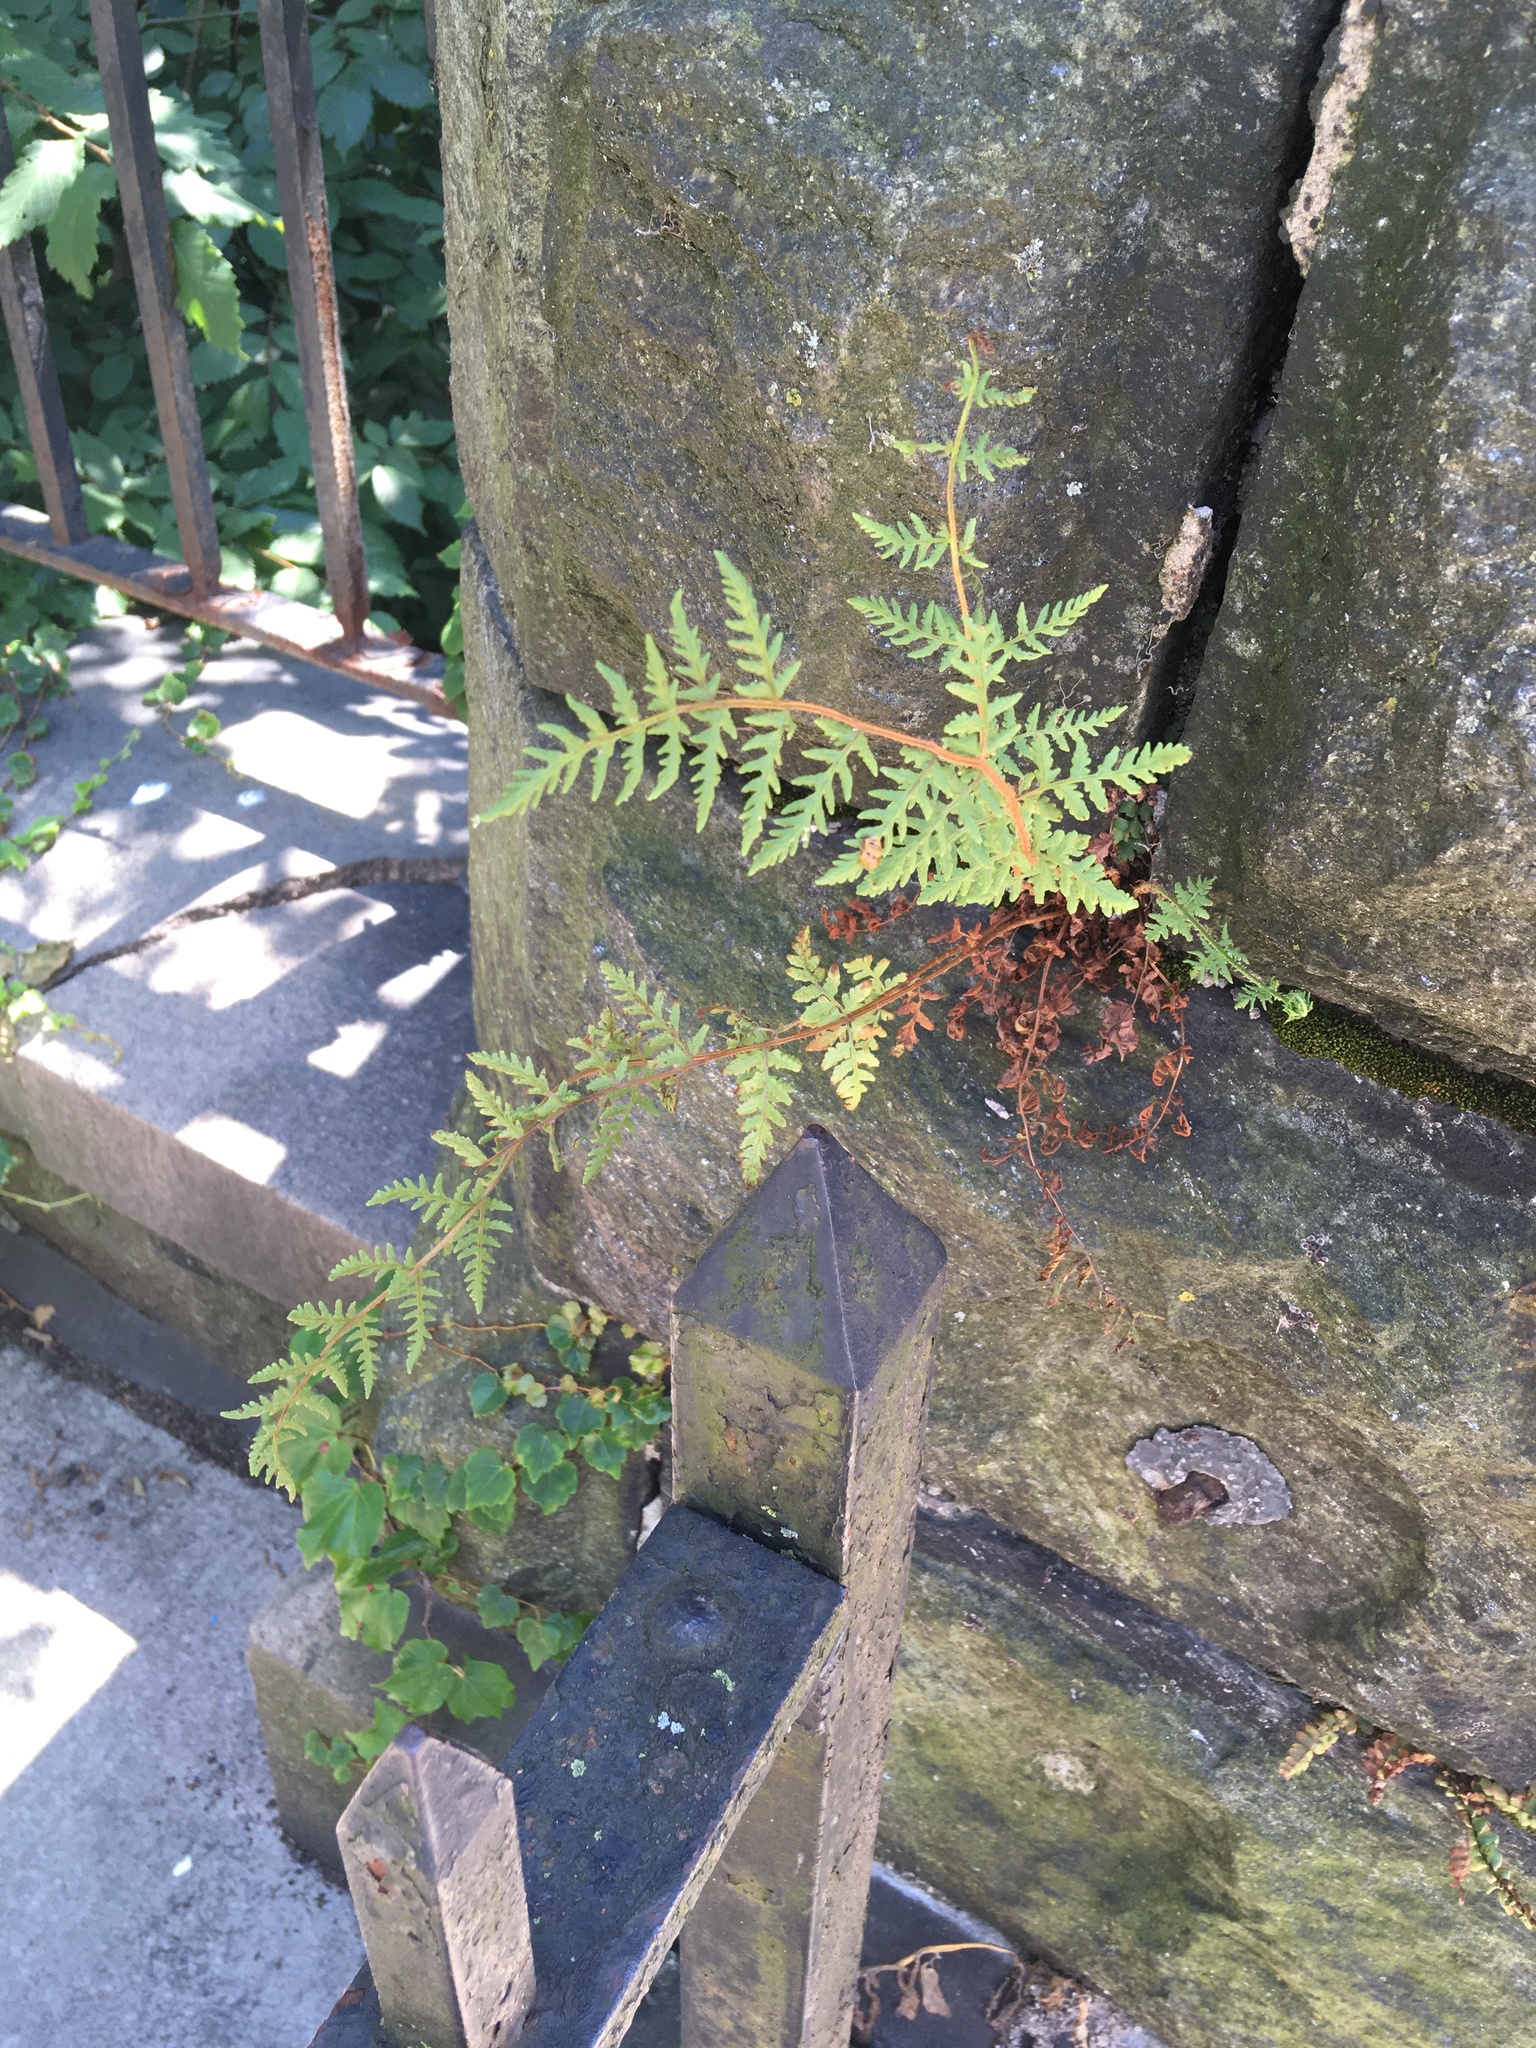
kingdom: Plantae
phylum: Tracheophyta
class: Polypodiopsida
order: Polypodiales
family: Woodsiaceae
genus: Physematium
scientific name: Physematium obtusum
